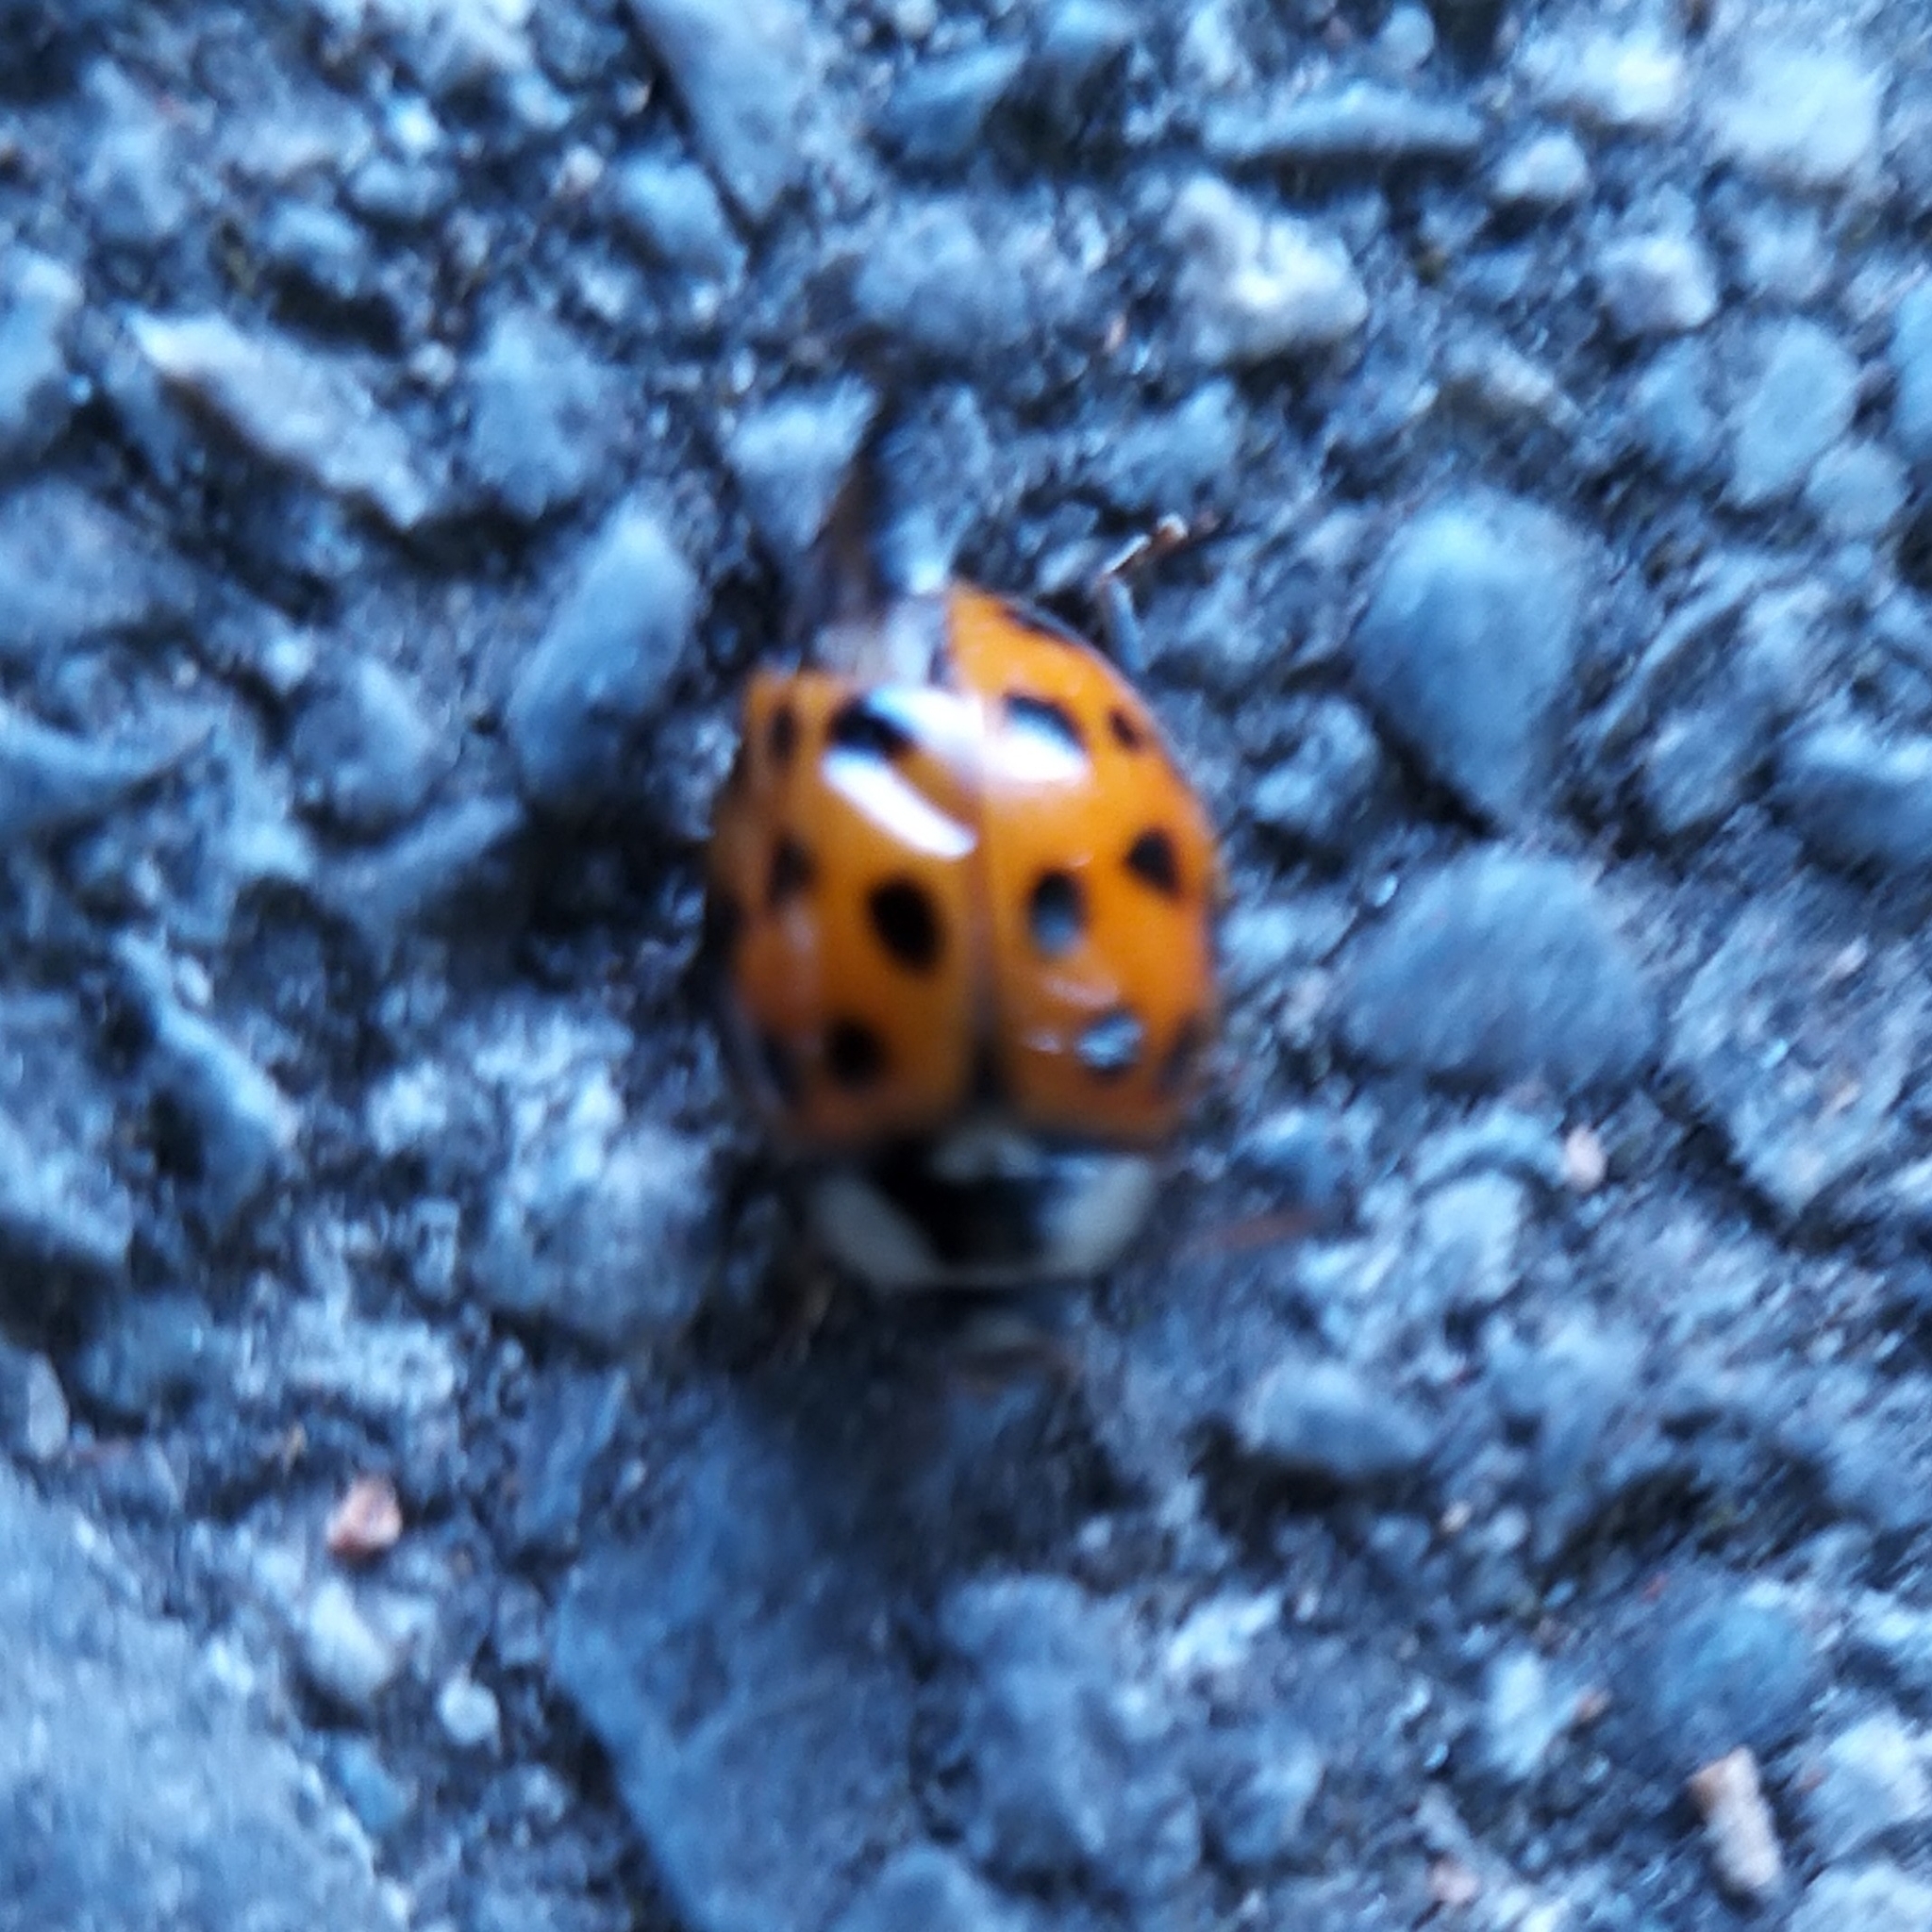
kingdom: Animalia
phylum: Arthropoda
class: Insecta
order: Coleoptera
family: Coccinellidae
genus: Harmonia
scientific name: Harmonia axyridis
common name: Harlequin ladybird
